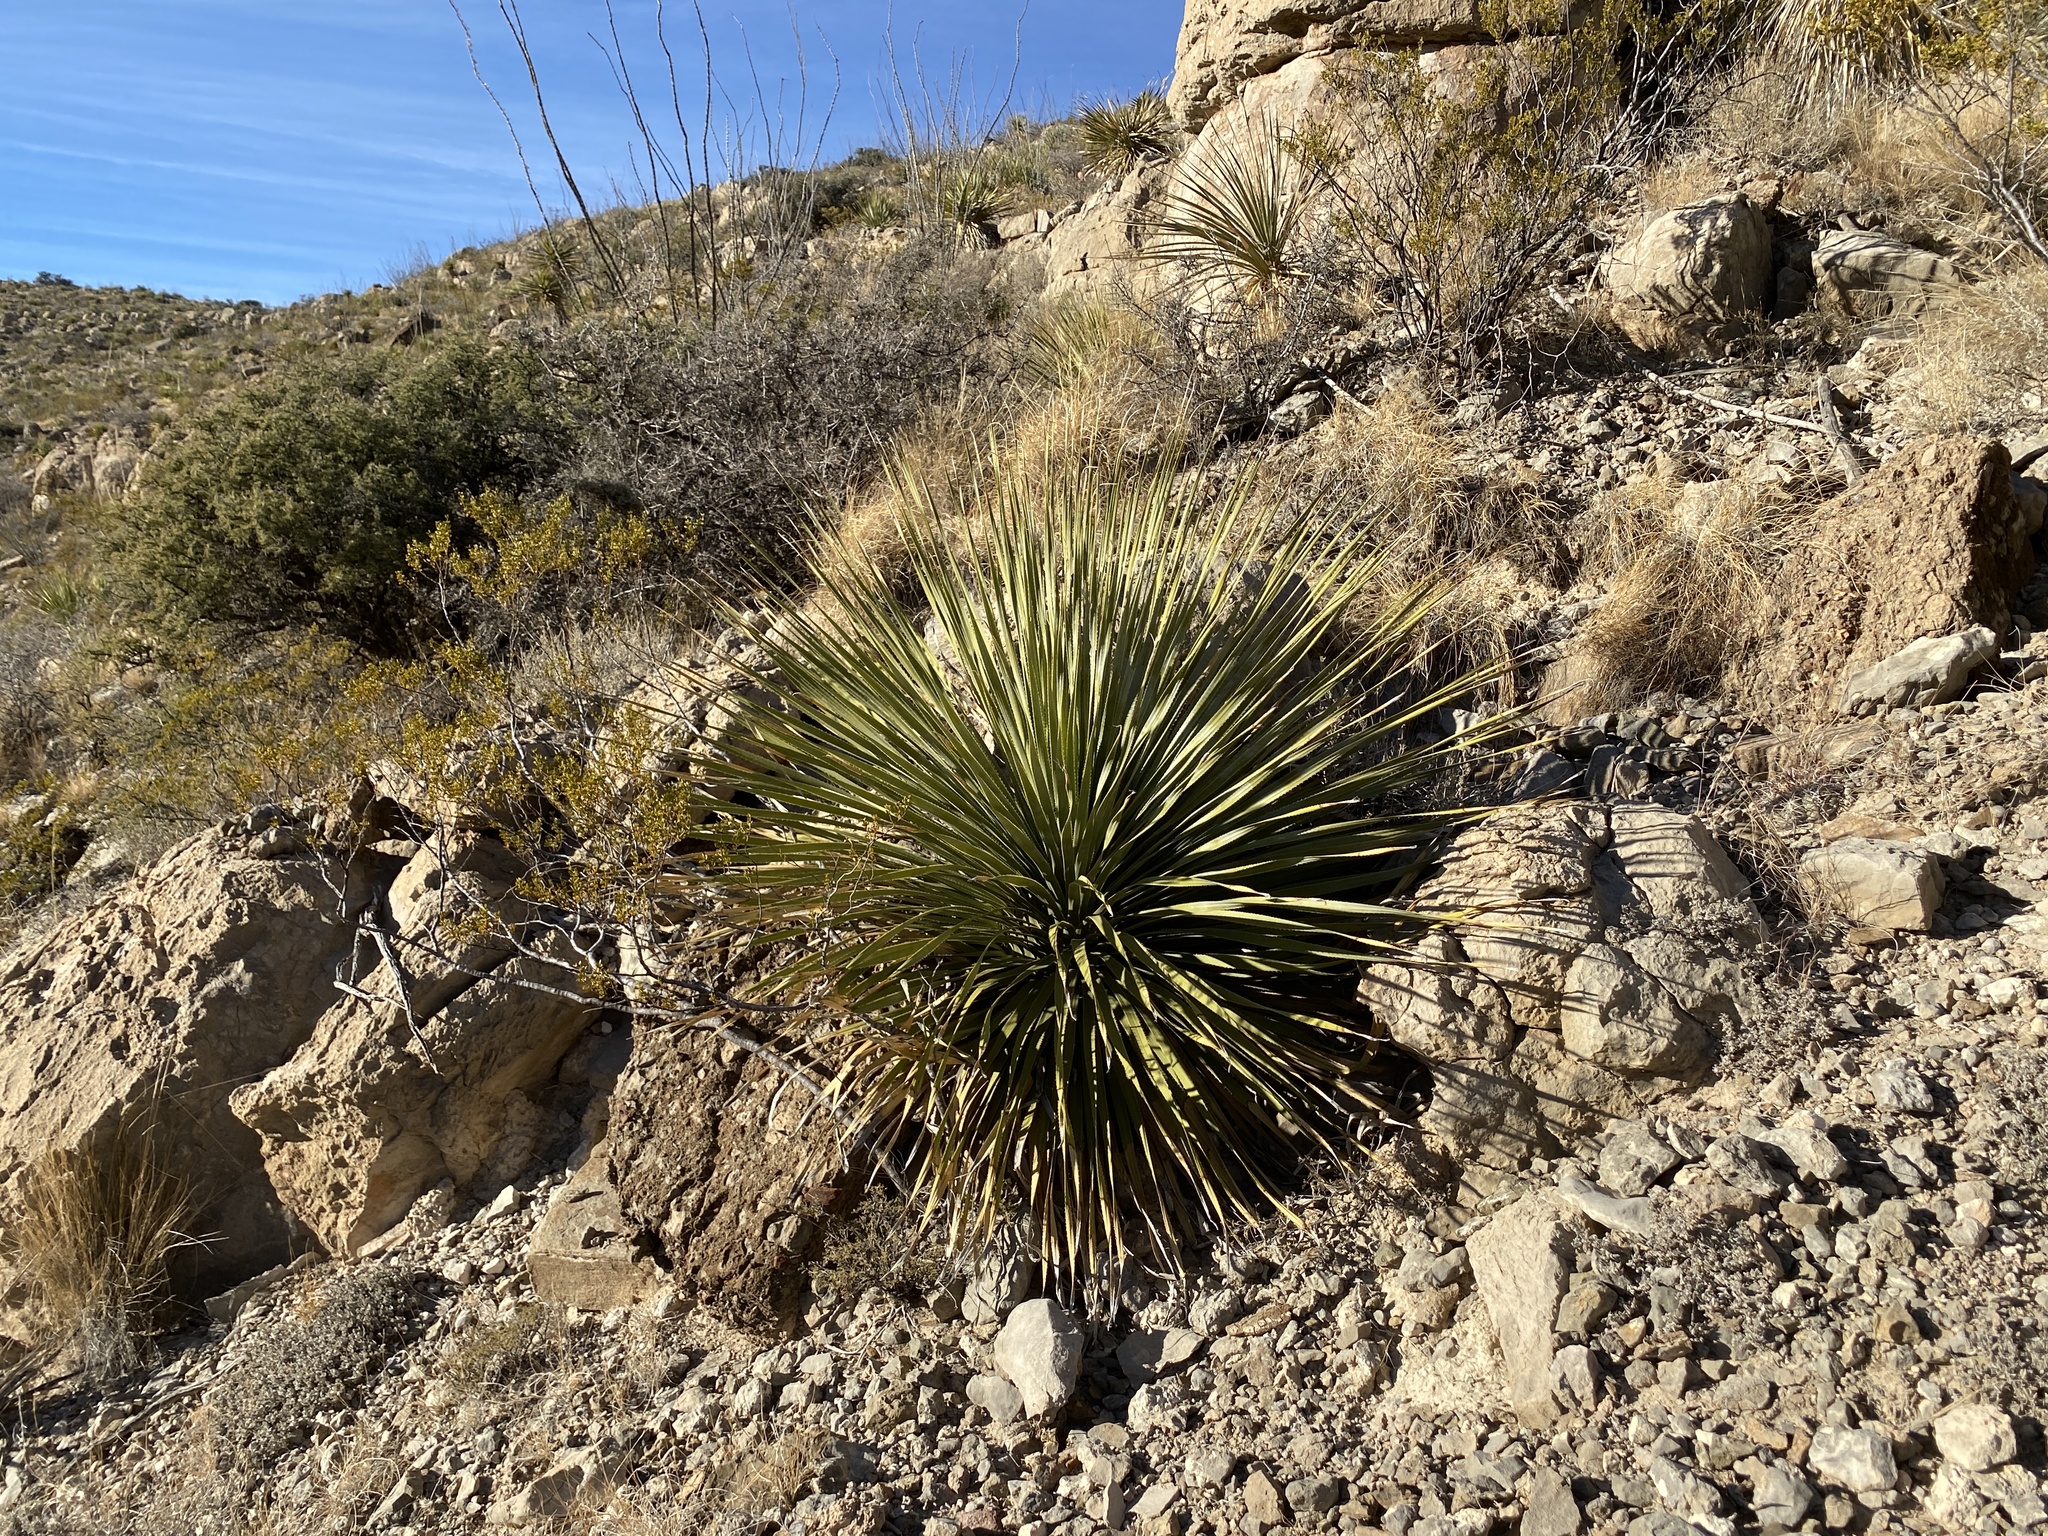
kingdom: Plantae
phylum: Tracheophyta
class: Liliopsida
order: Asparagales
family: Asparagaceae
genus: Dasylirion
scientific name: Dasylirion wheeleri
